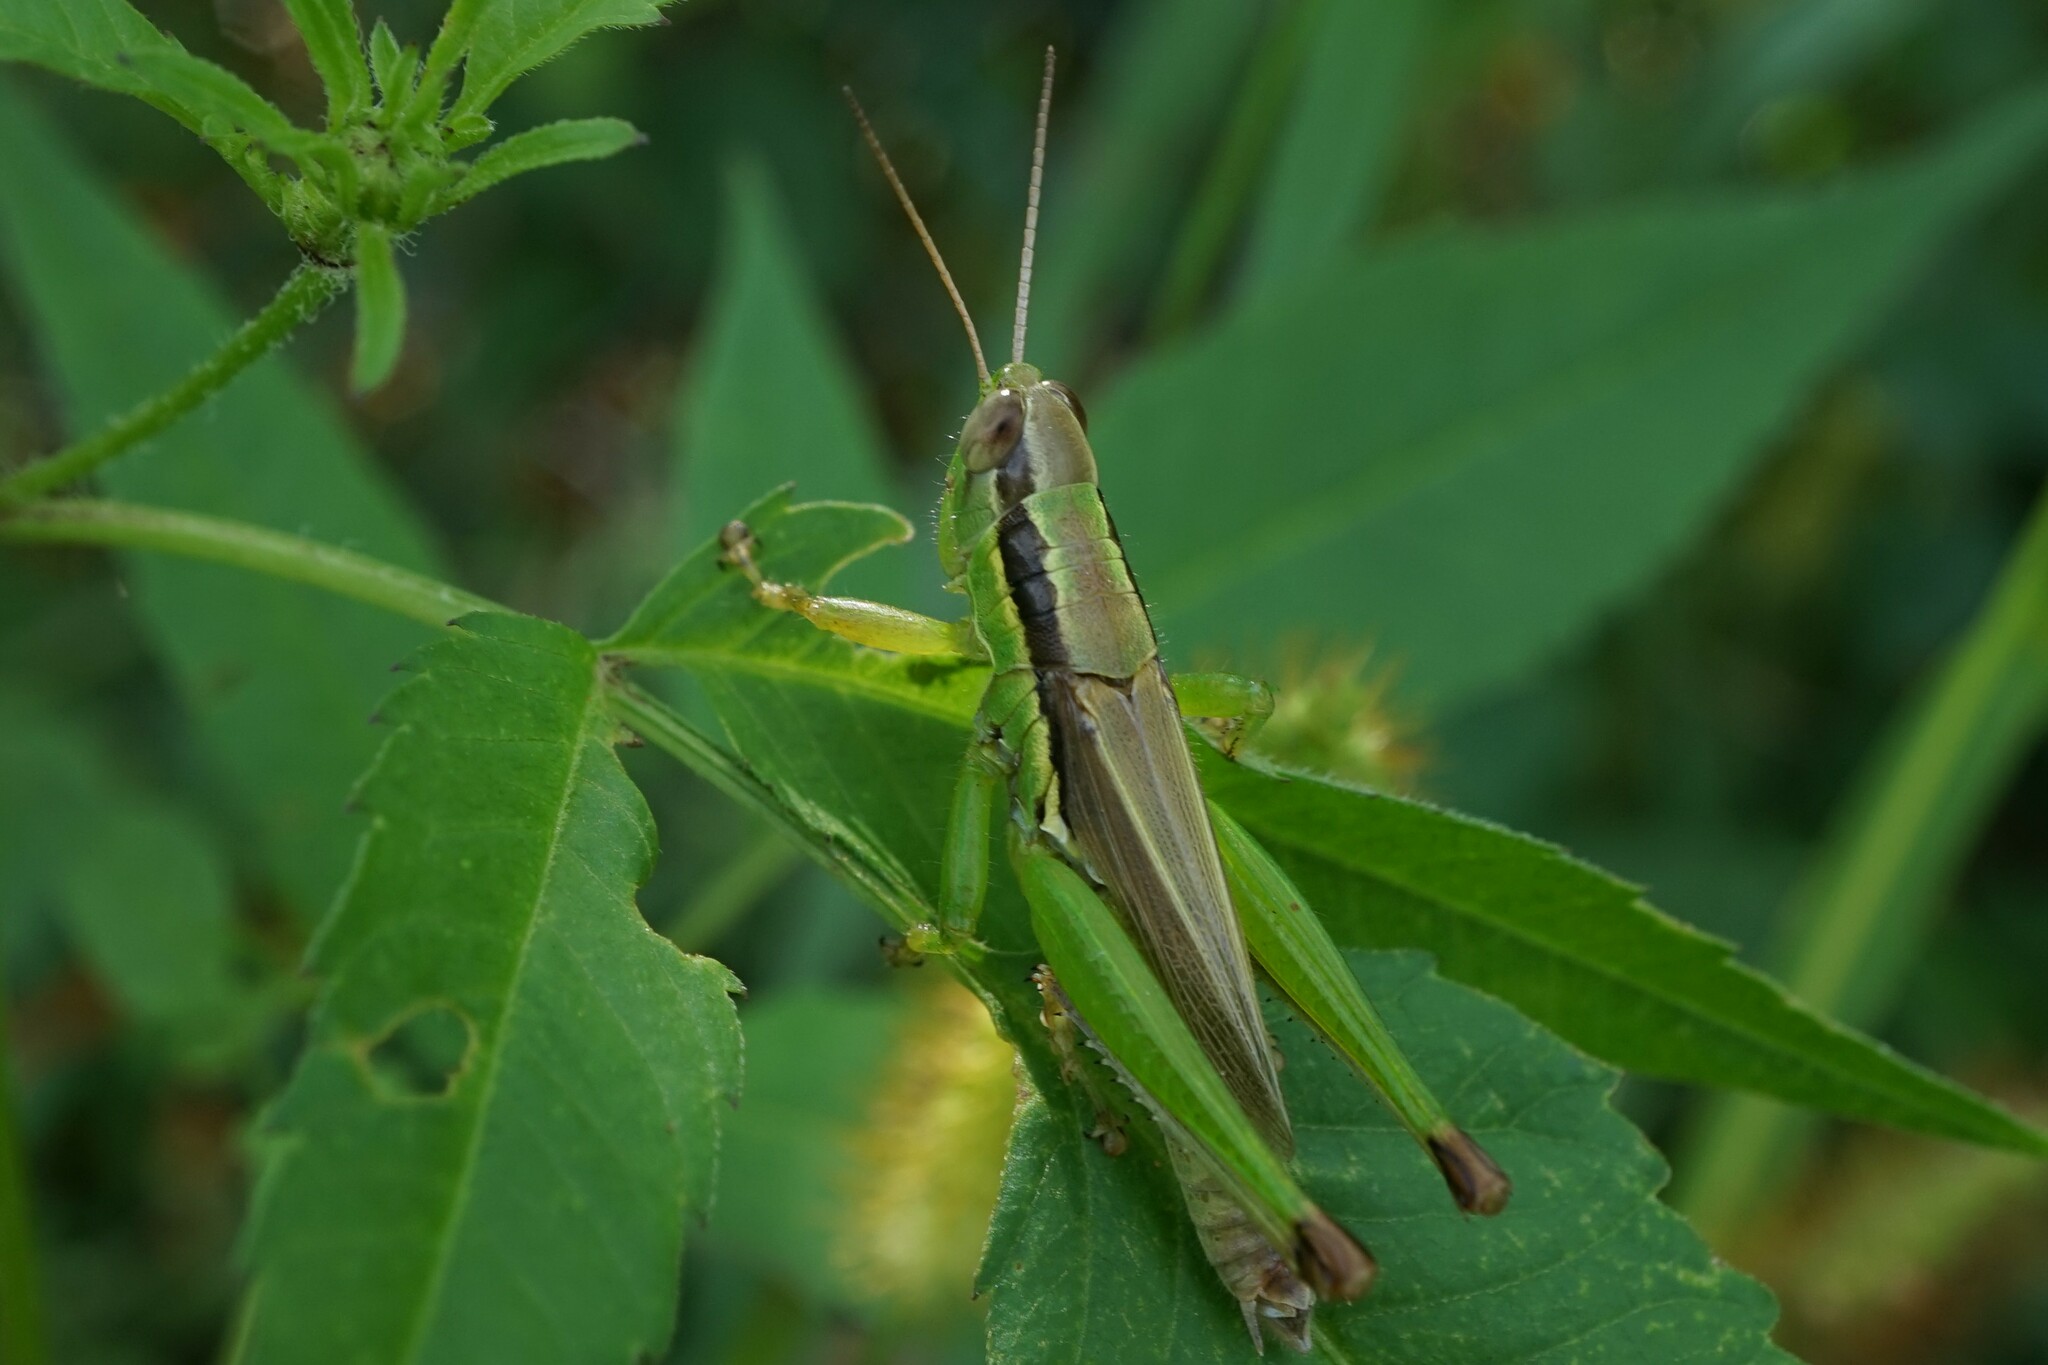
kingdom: Animalia
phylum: Arthropoda
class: Insecta
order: Orthoptera
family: Acrididae
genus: Oxya
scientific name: Oxya yezoensis
